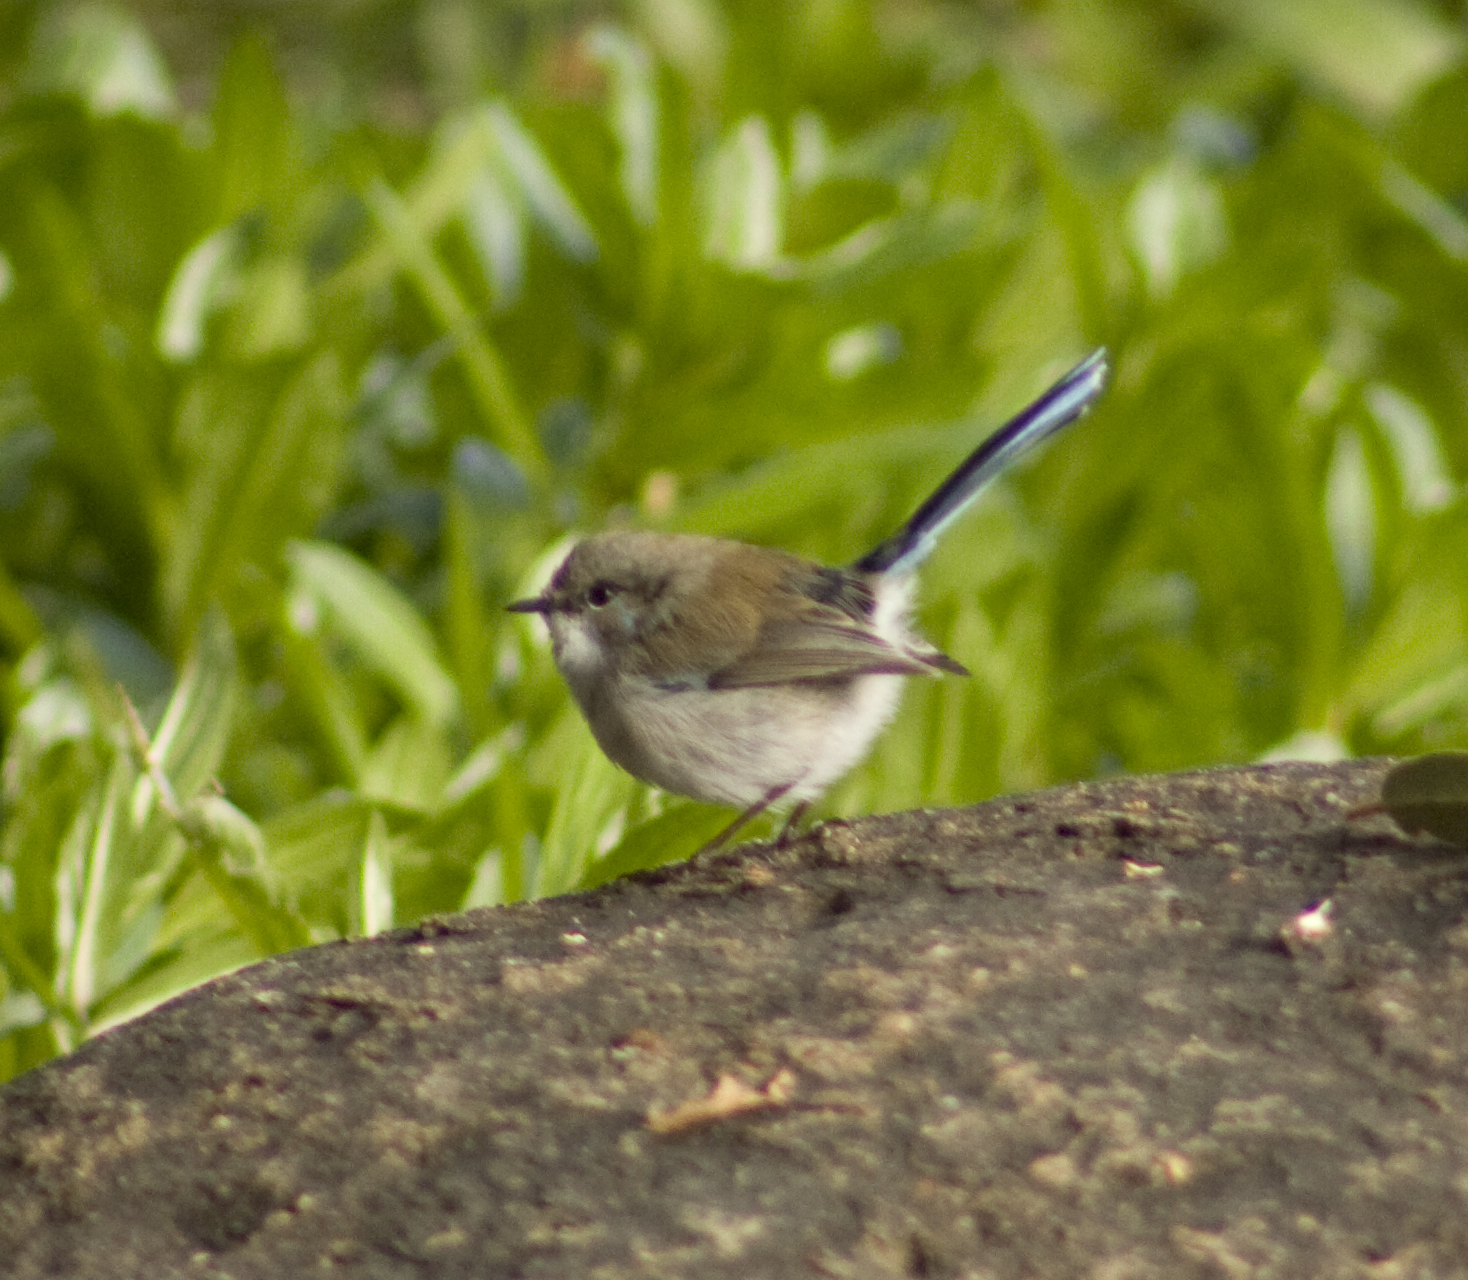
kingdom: Animalia
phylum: Chordata
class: Aves
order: Passeriformes
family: Maluridae
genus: Malurus
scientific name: Malurus cyaneus
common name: Superb fairywren
